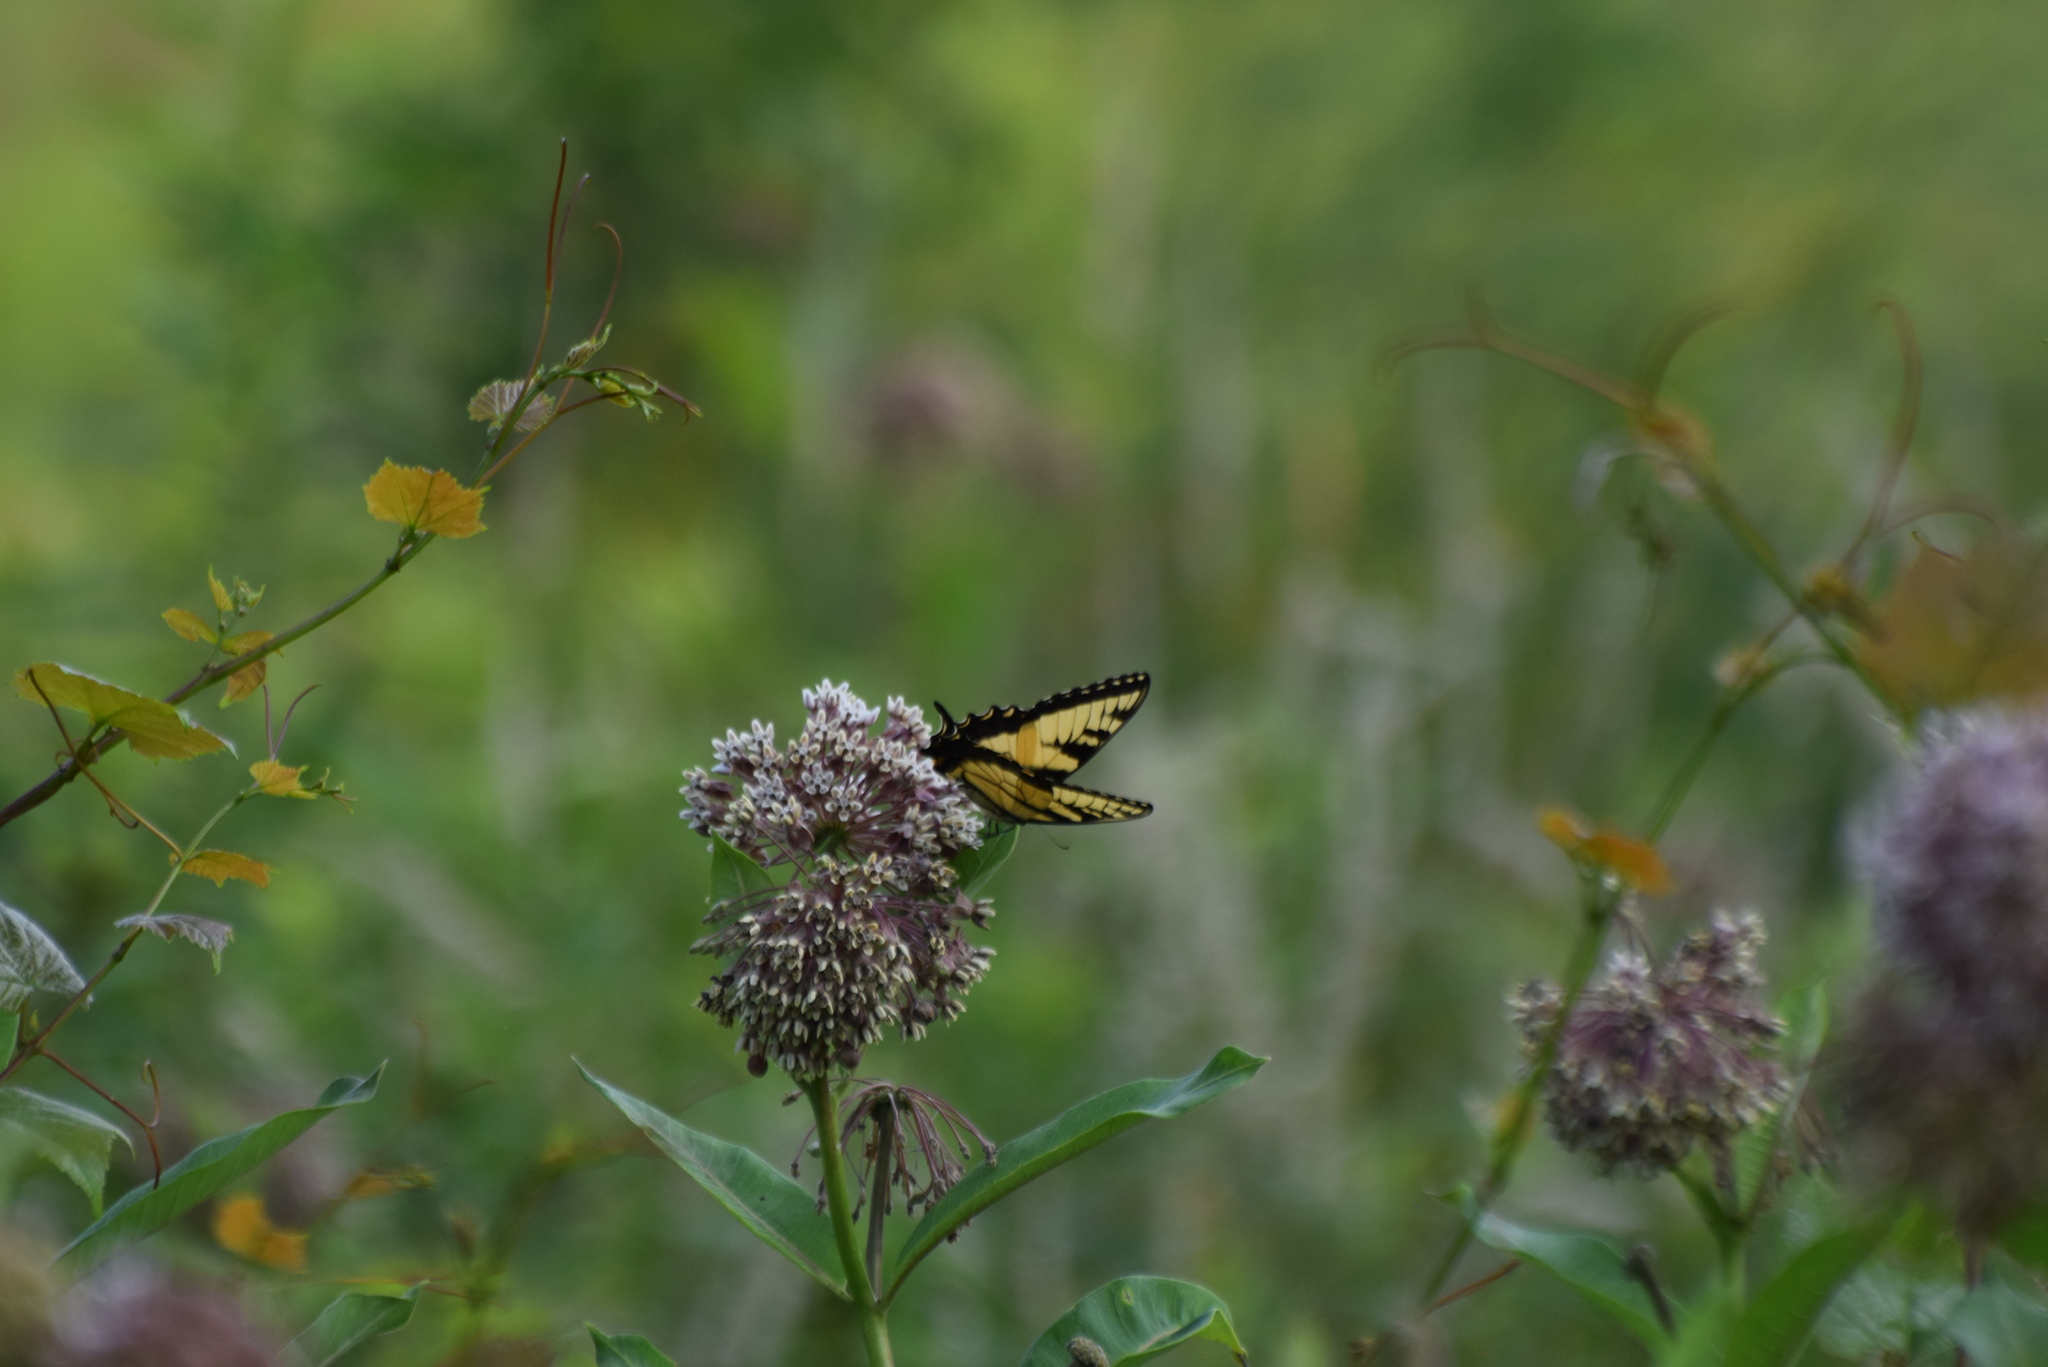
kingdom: Animalia
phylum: Arthropoda
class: Insecta
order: Lepidoptera
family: Papilionidae
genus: Papilio
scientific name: Papilio glaucus
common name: Tiger swallowtail
